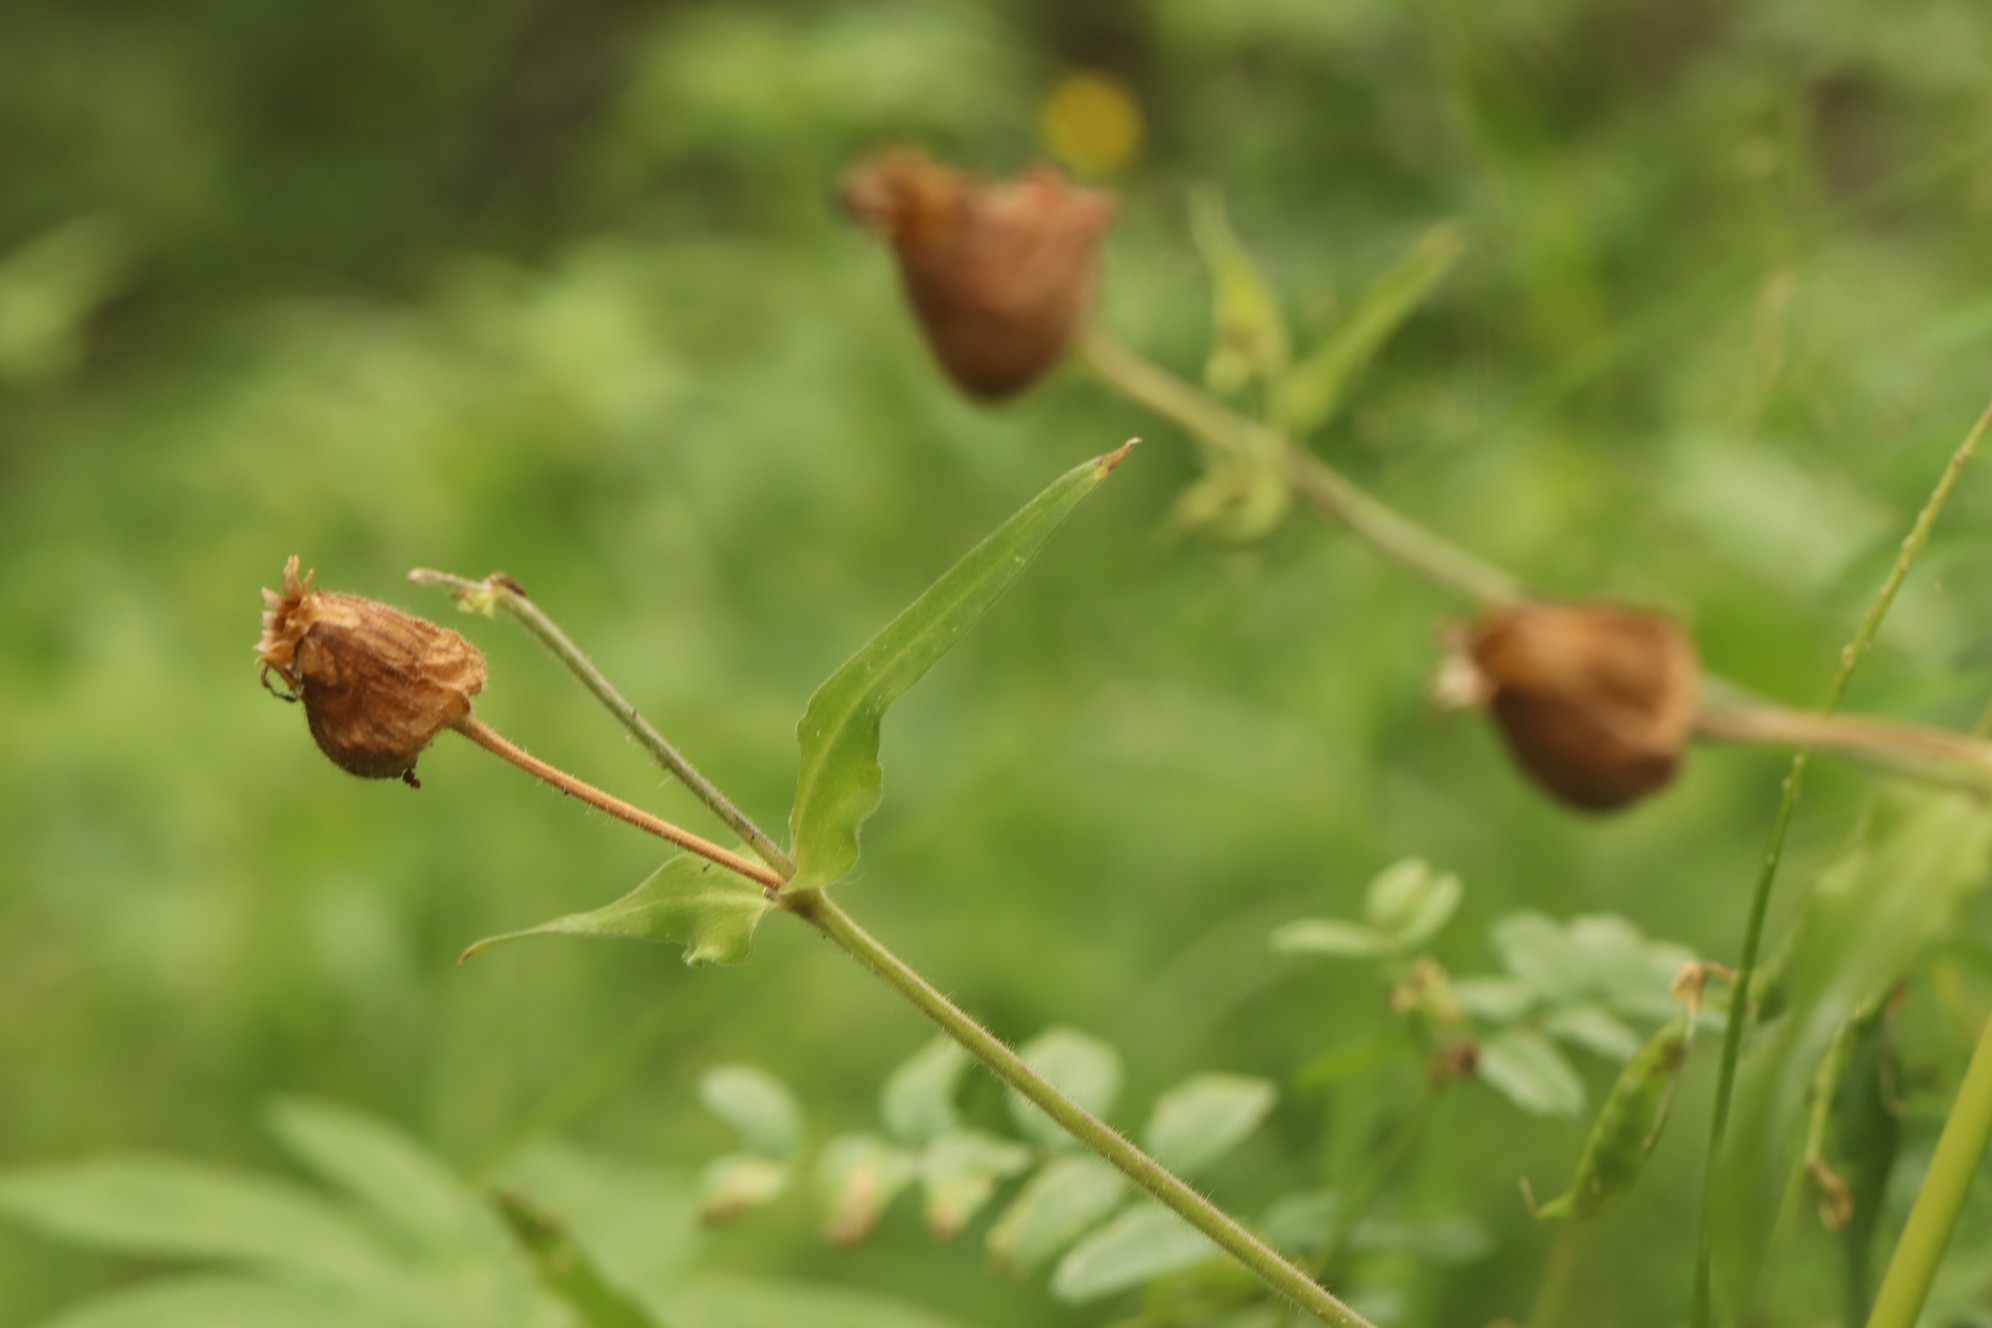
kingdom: Plantae
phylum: Tracheophyta
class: Magnoliopsida
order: Caryophyllales
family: Caryophyllaceae
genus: Silene
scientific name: Silene latifolia
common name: White campion
